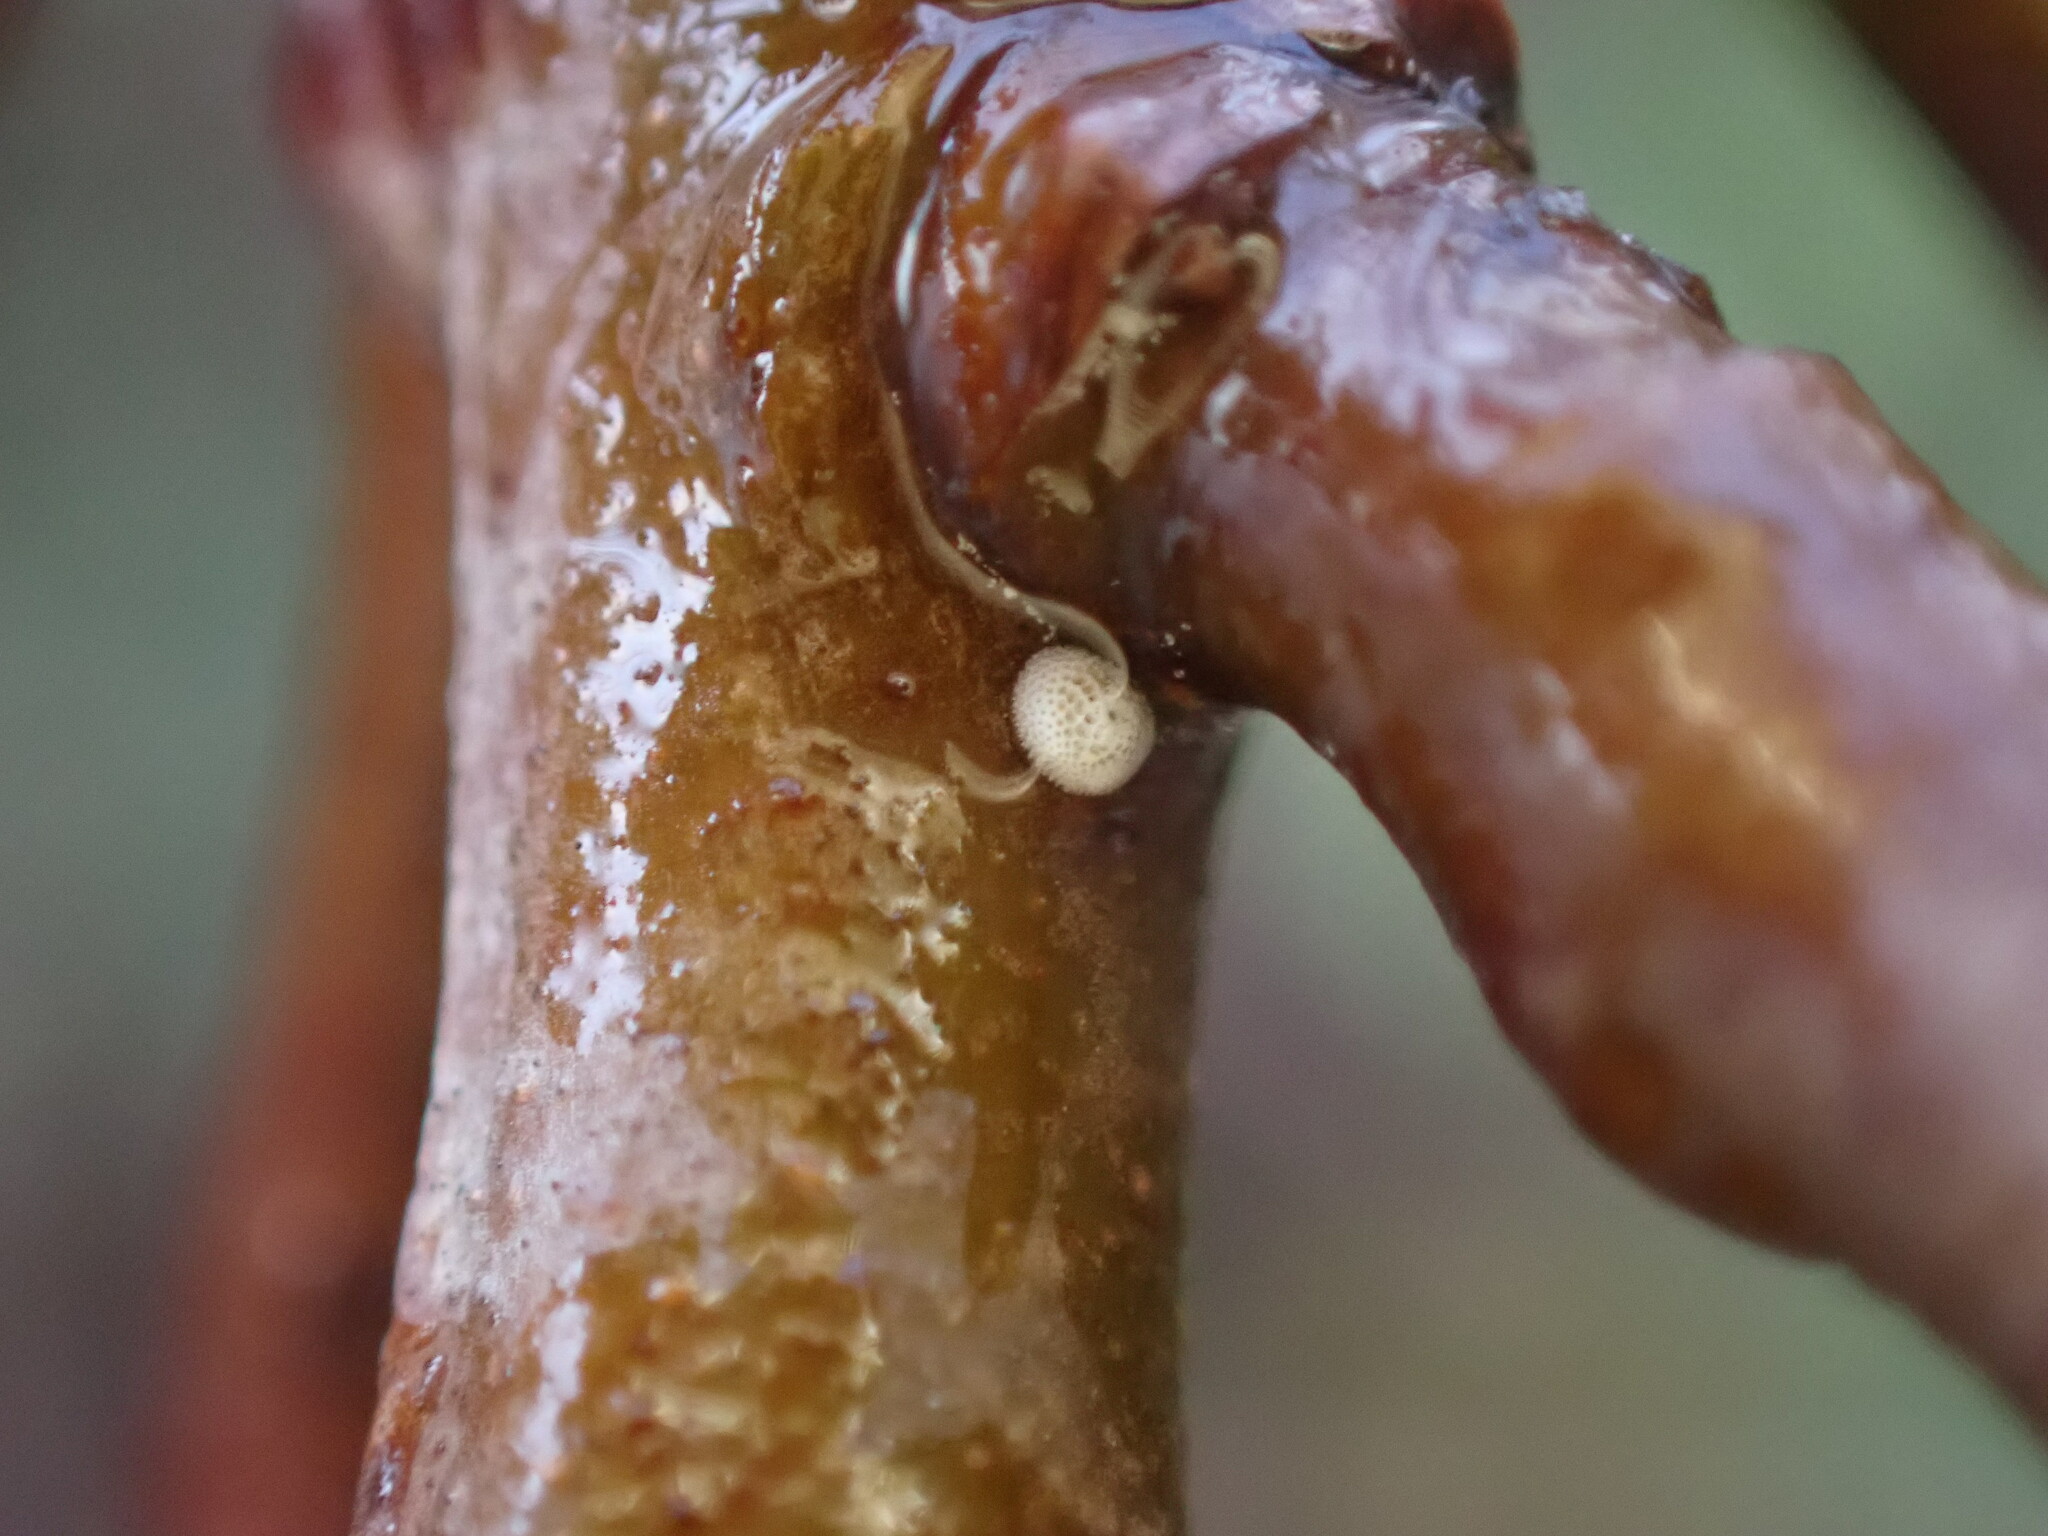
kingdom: Animalia
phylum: Arthropoda
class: Insecta
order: Lepidoptera
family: Lycaenidae
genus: Thecla
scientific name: Thecla betulae
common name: Brown hairstreak
